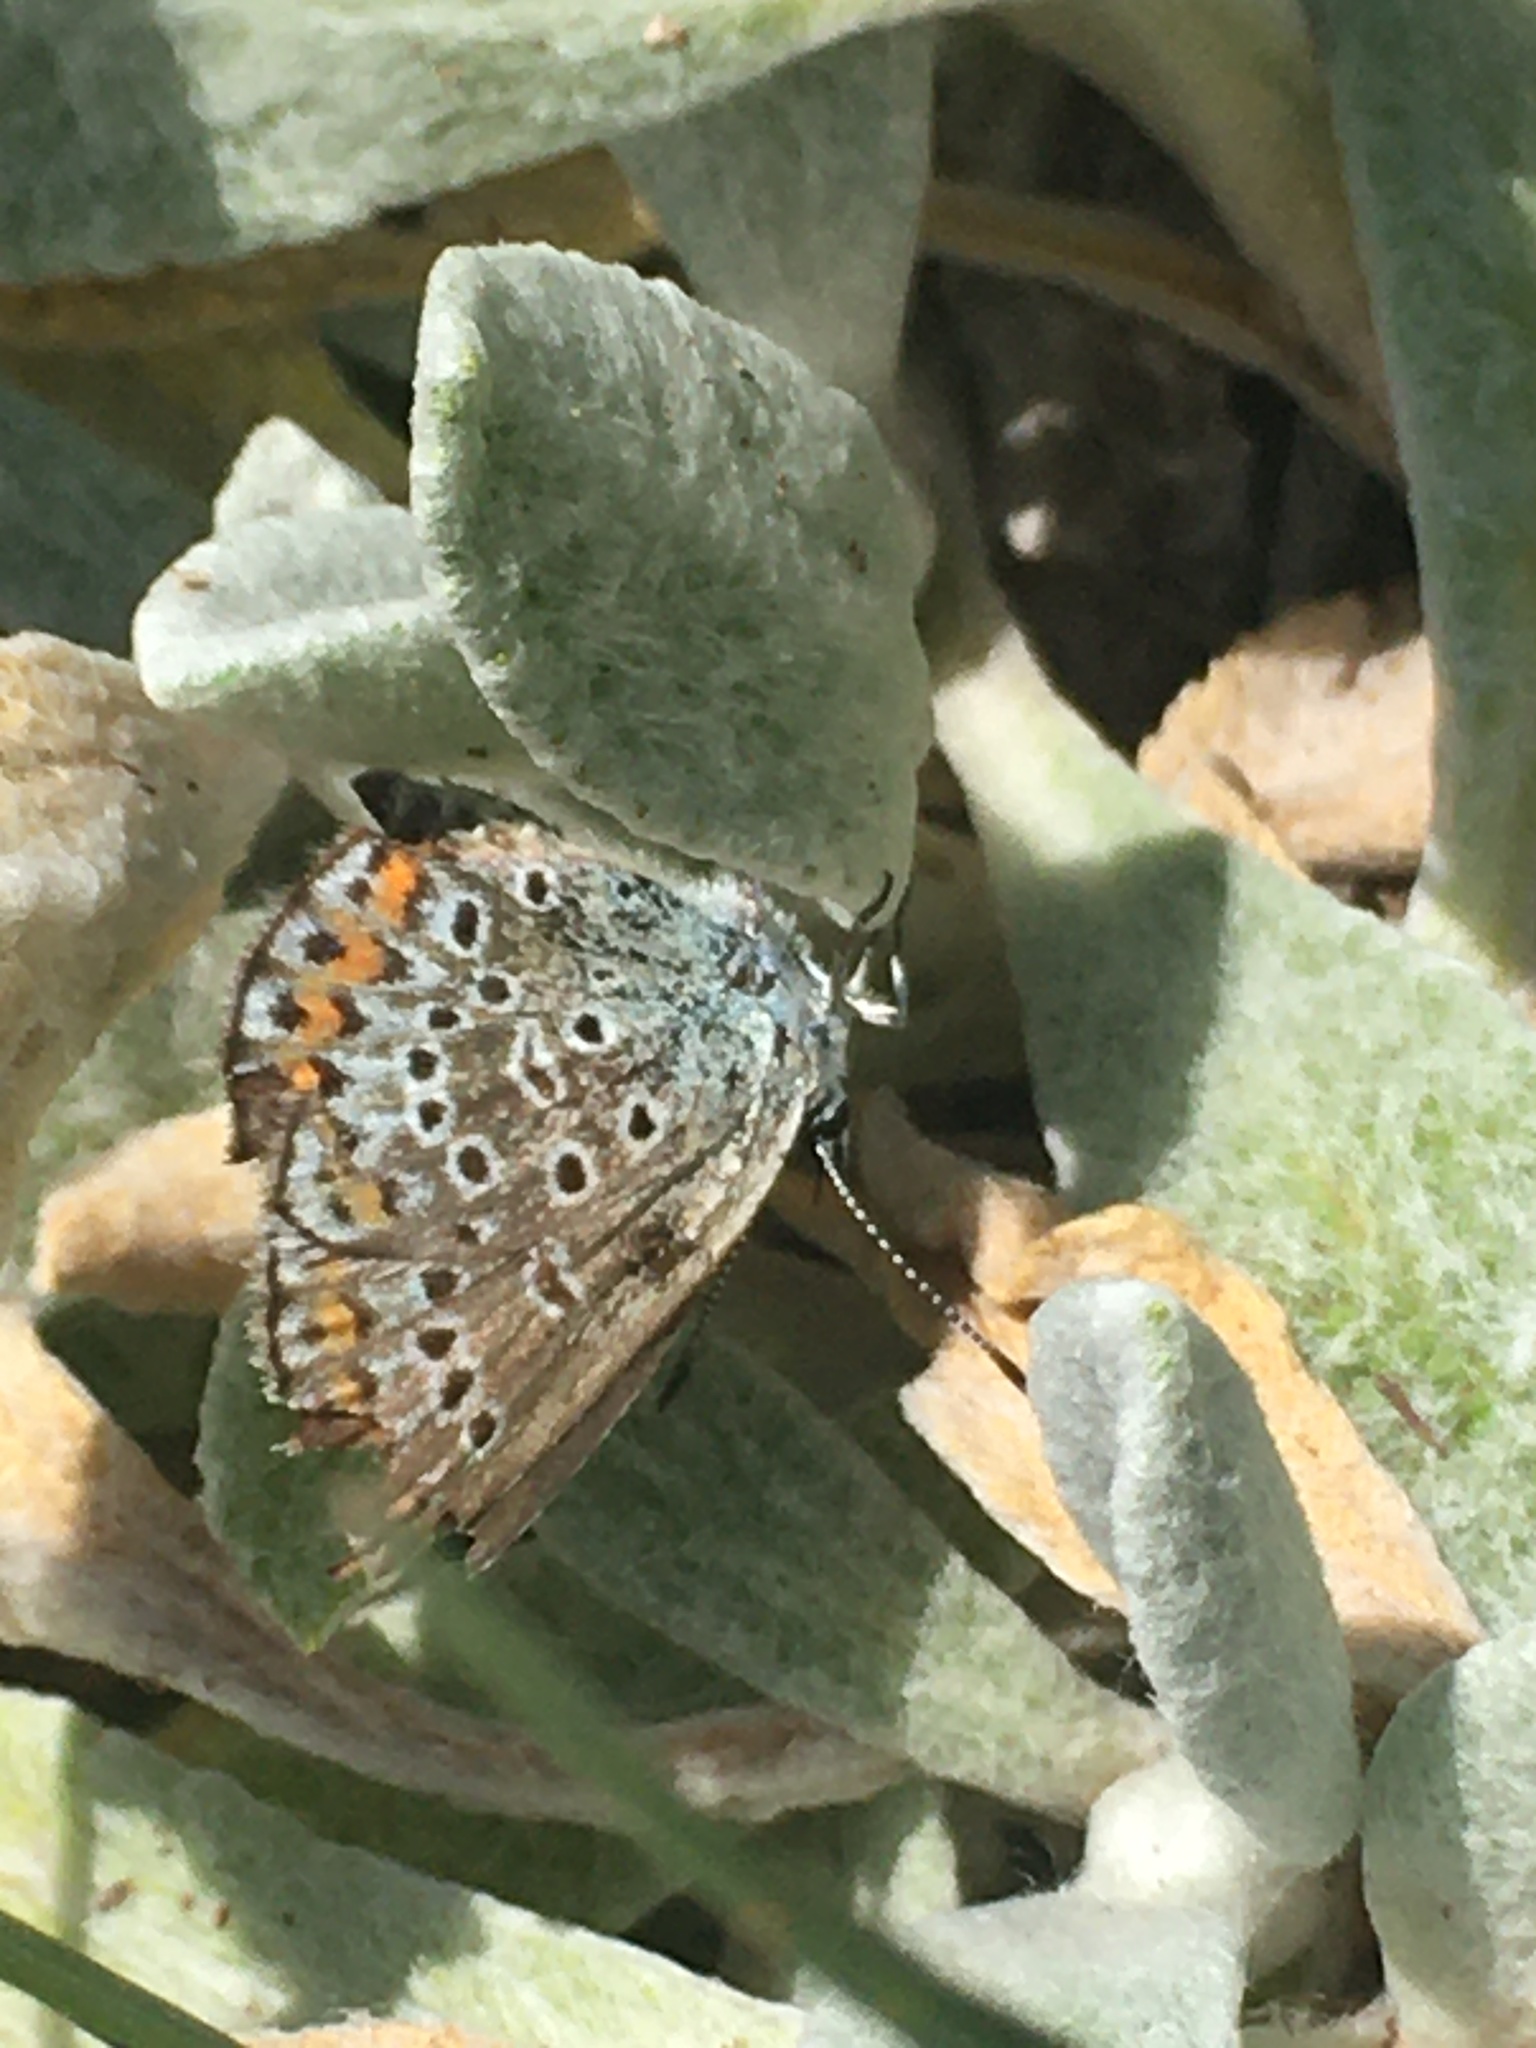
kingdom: Animalia
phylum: Arthropoda
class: Insecta
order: Lepidoptera
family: Lycaenidae
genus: Plebejus
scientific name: Plebejus argus
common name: Silver-studded blue
